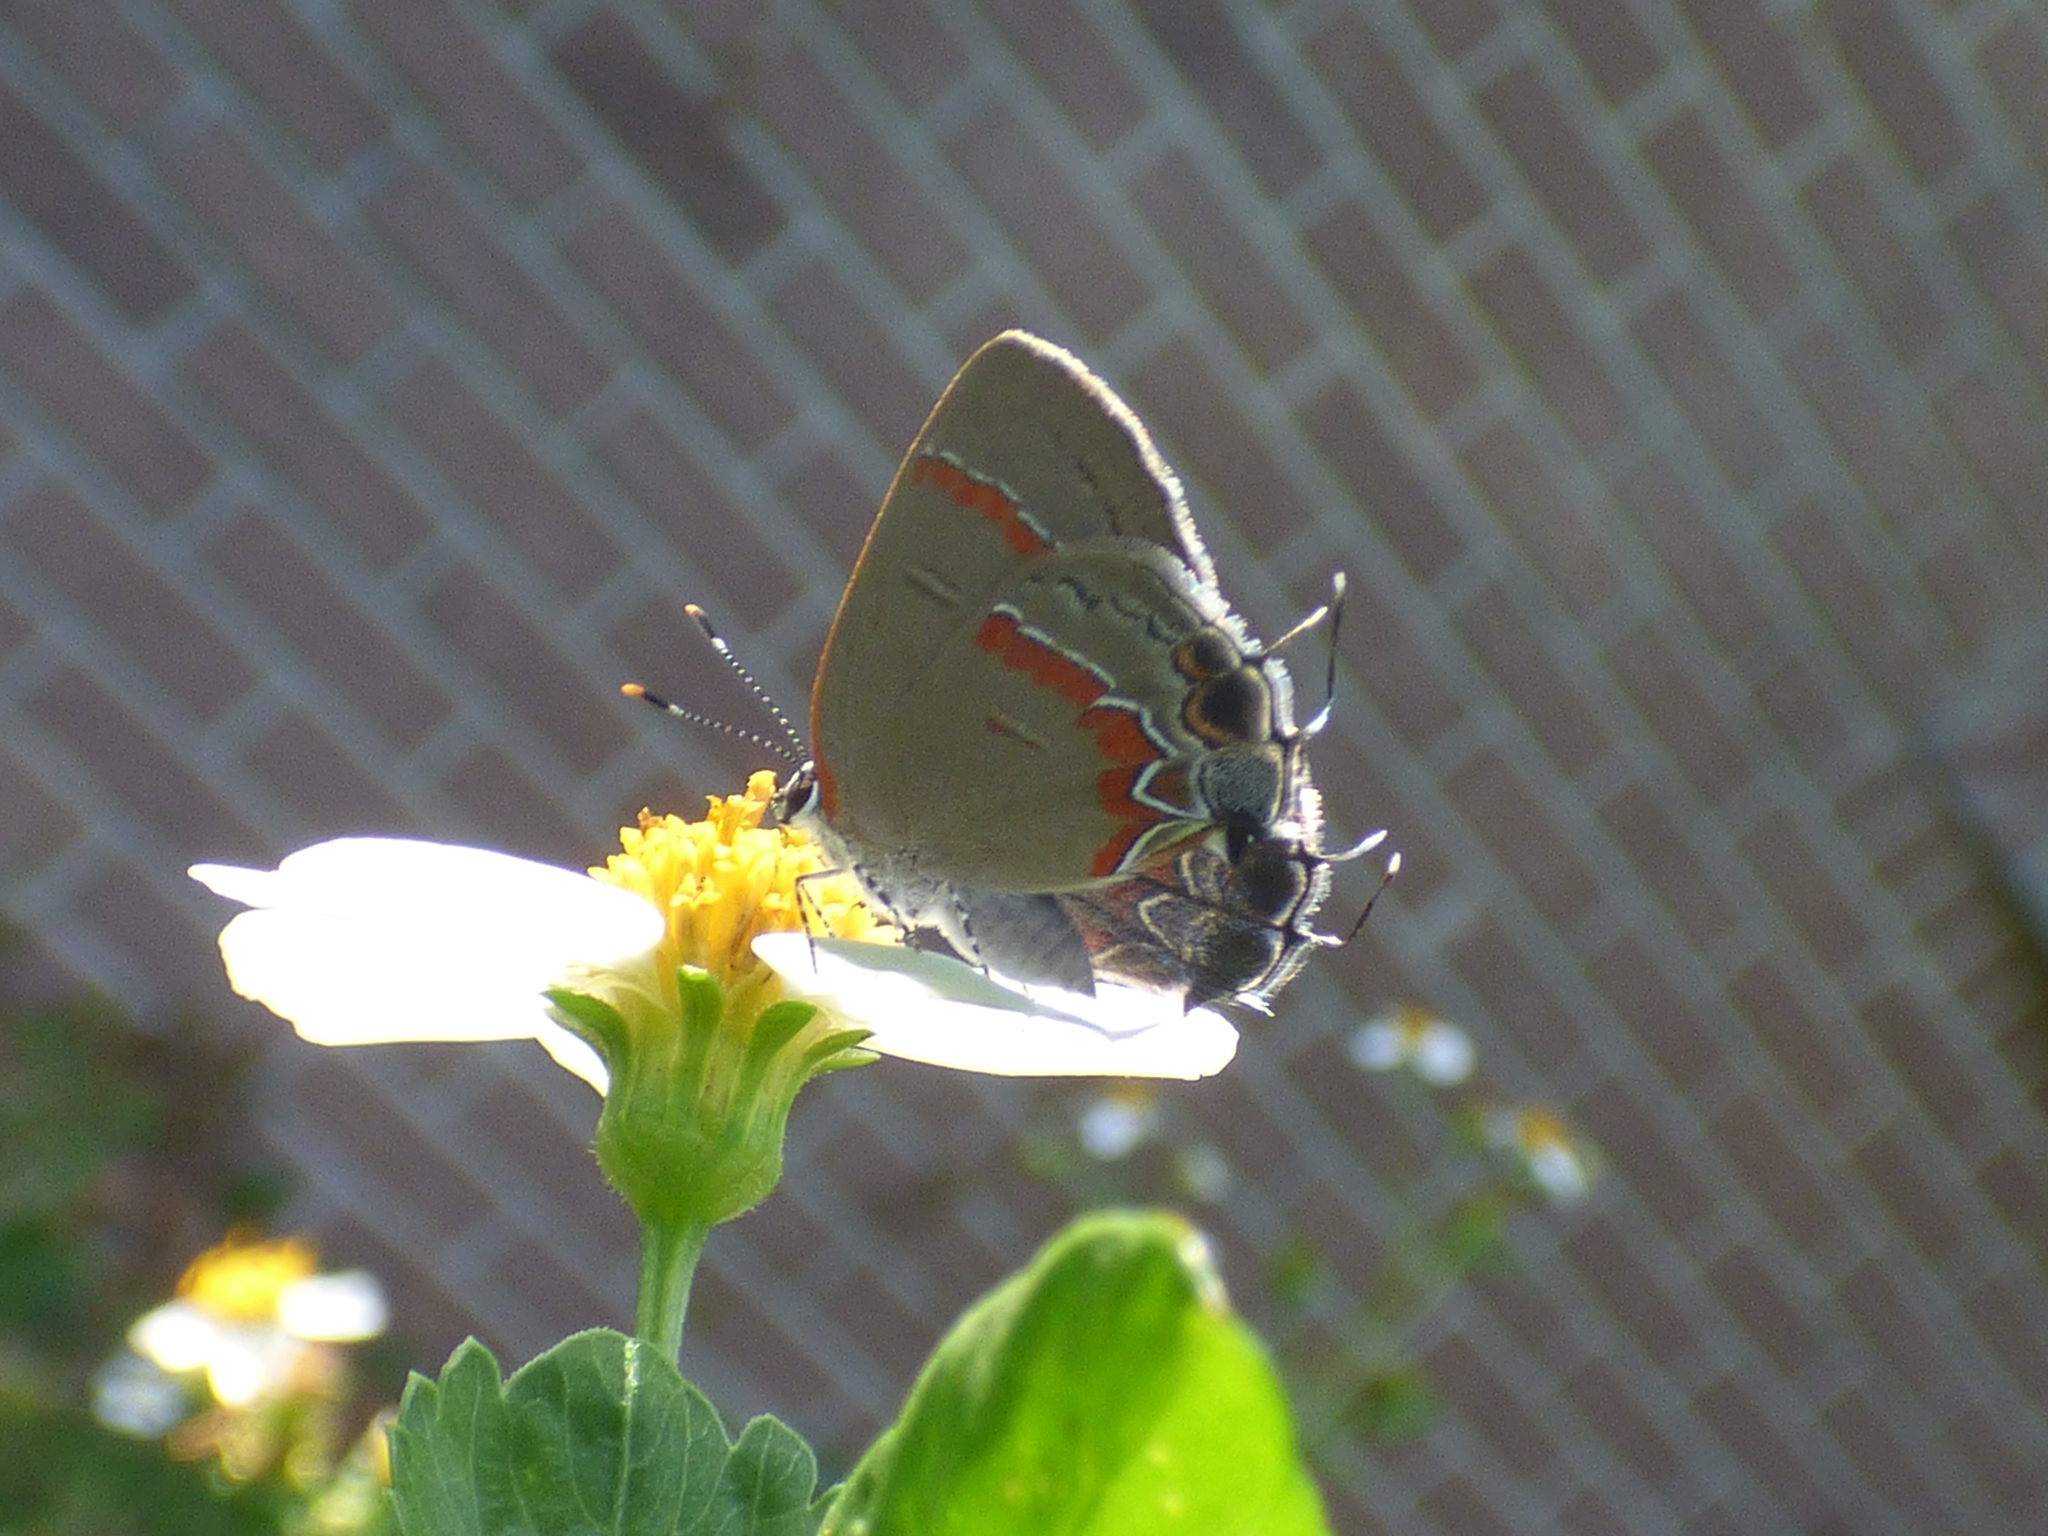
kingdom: Animalia
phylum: Arthropoda
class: Insecta
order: Lepidoptera
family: Lycaenidae
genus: Calycopis
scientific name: Calycopis cecrops
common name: Red-banded hairstreak
